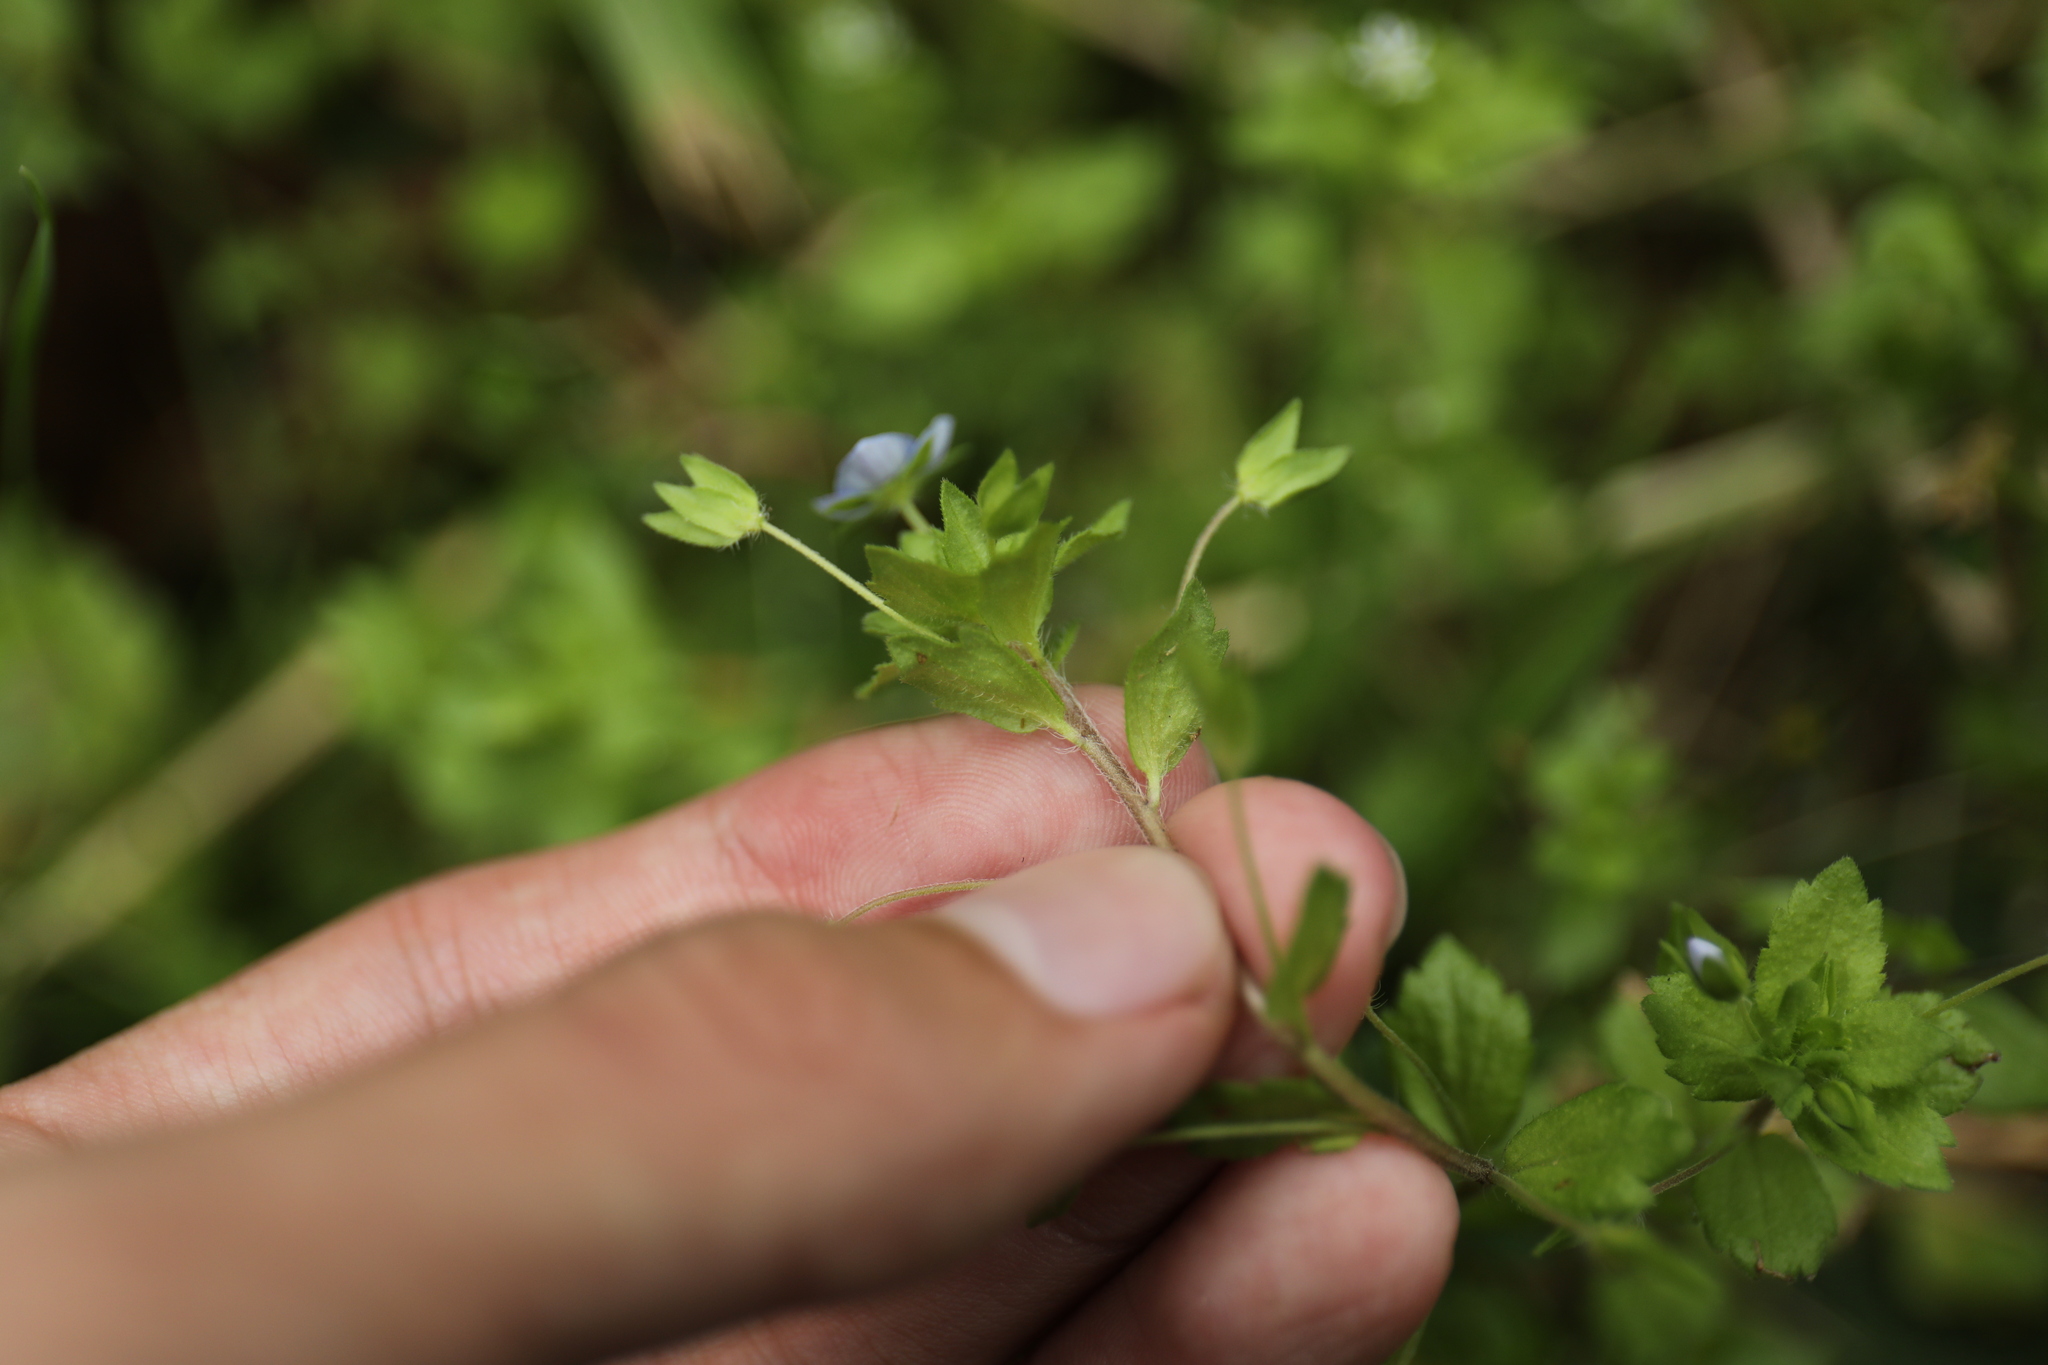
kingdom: Plantae
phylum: Tracheophyta
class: Magnoliopsida
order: Lamiales
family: Plantaginaceae
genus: Veronica
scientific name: Veronica persica
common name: Common field-speedwell
